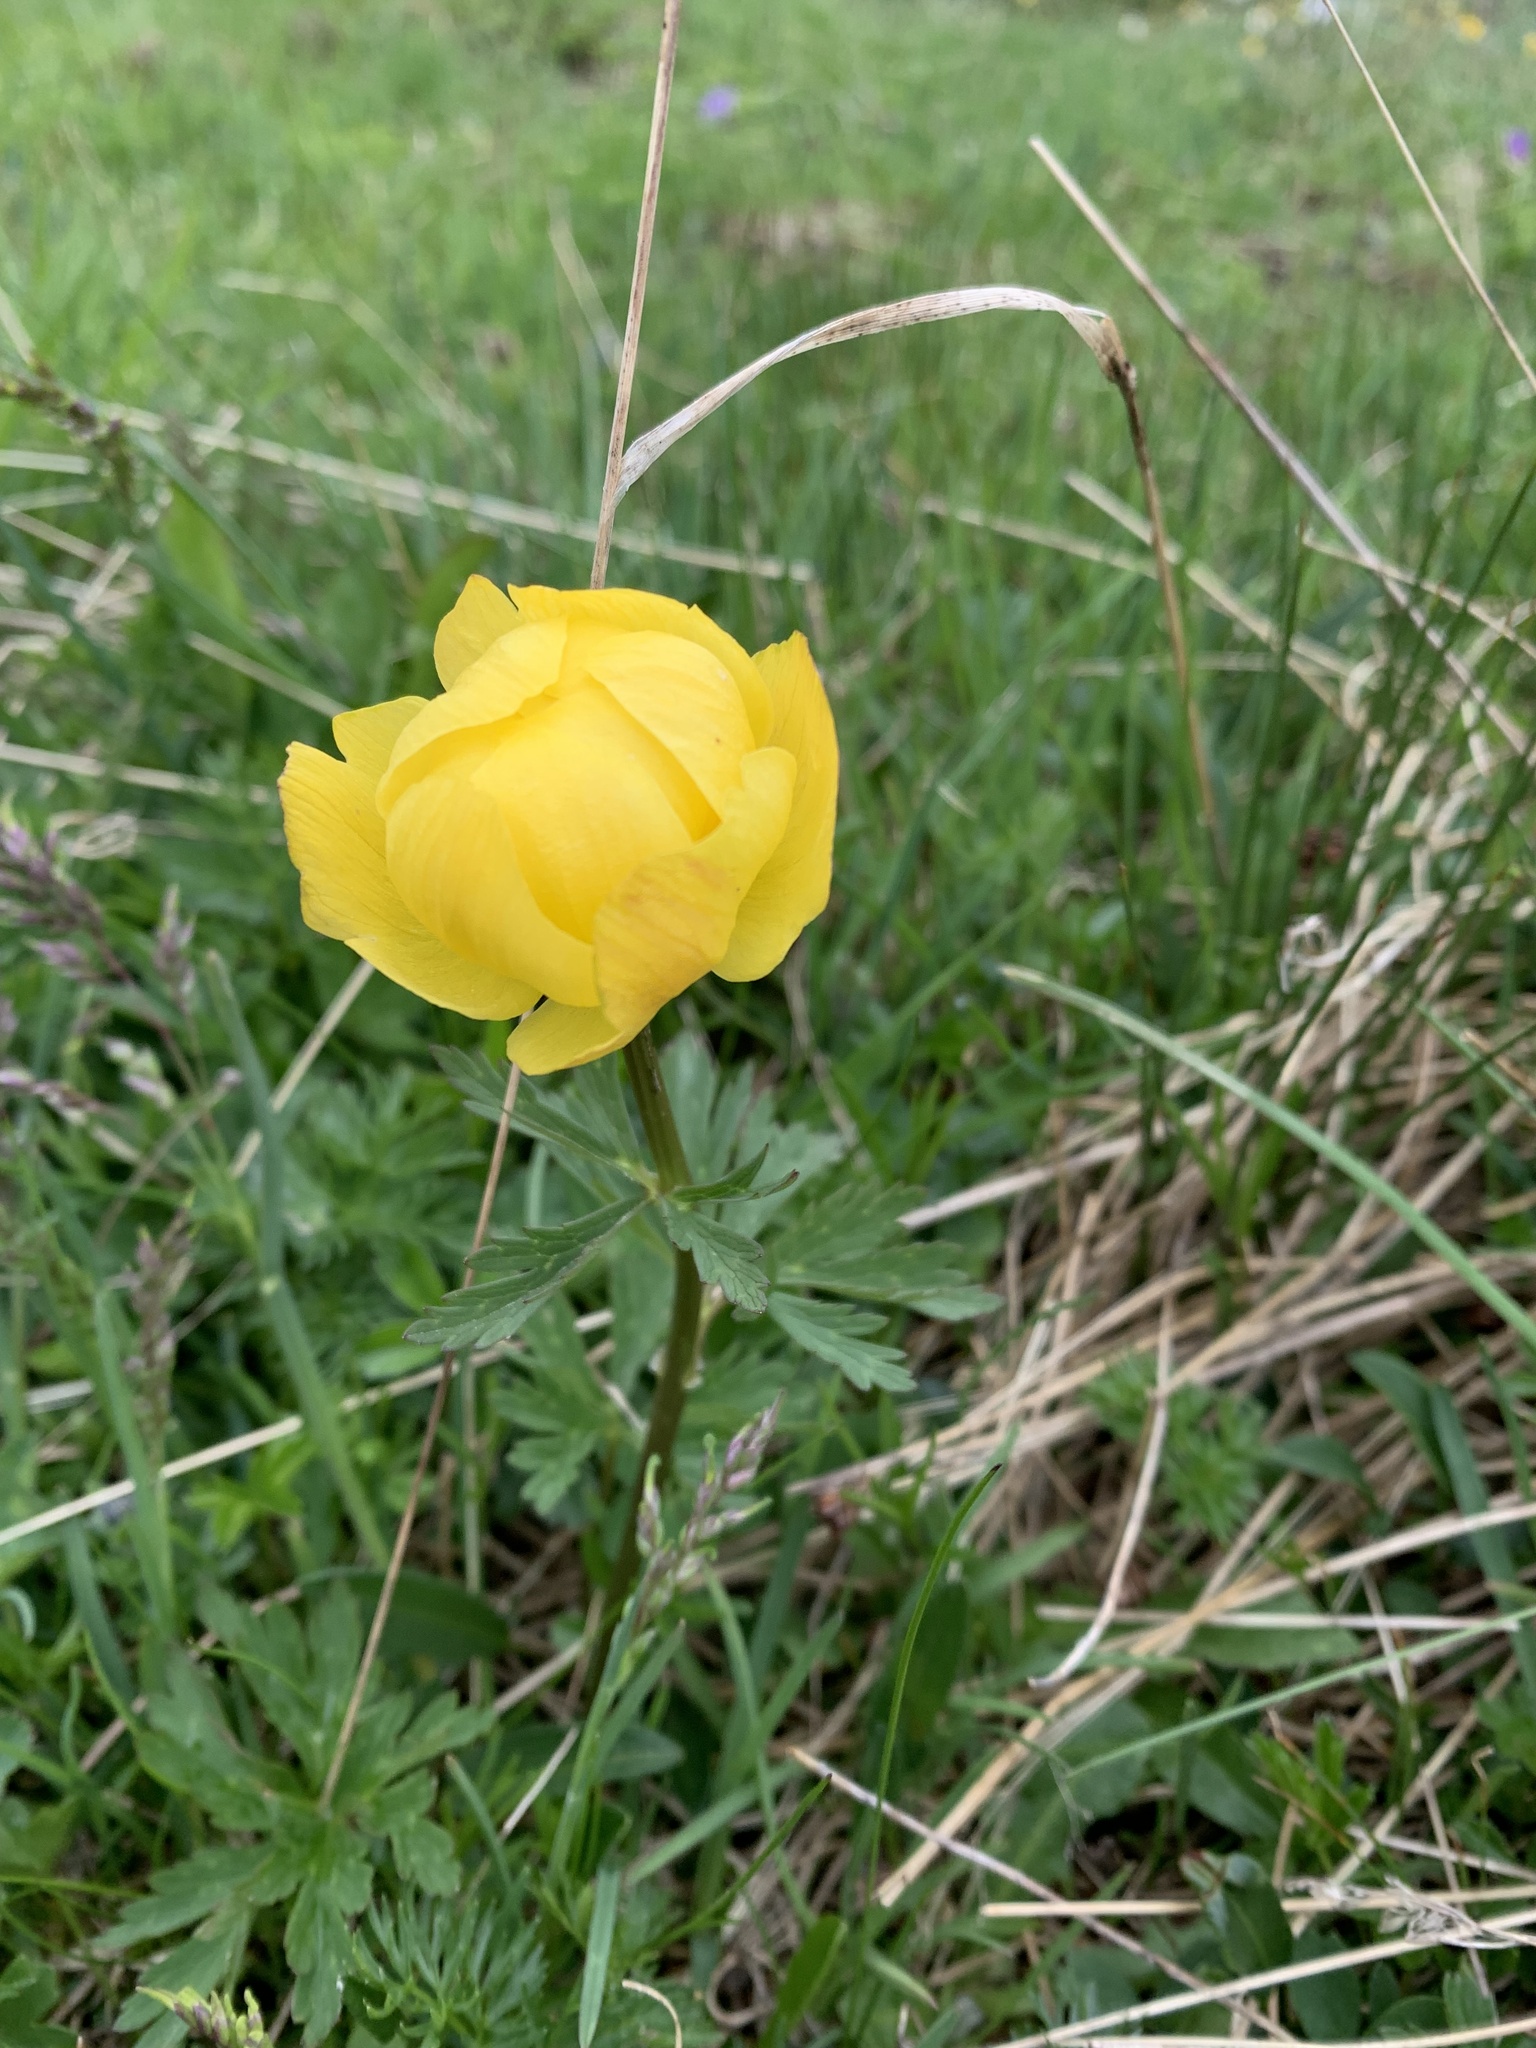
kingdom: Plantae
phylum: Tracheophyta
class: Magnoliopsida
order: Ranunculales
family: Ranunculaceae
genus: Trollius
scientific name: Trollius europaeus
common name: European globeflower
